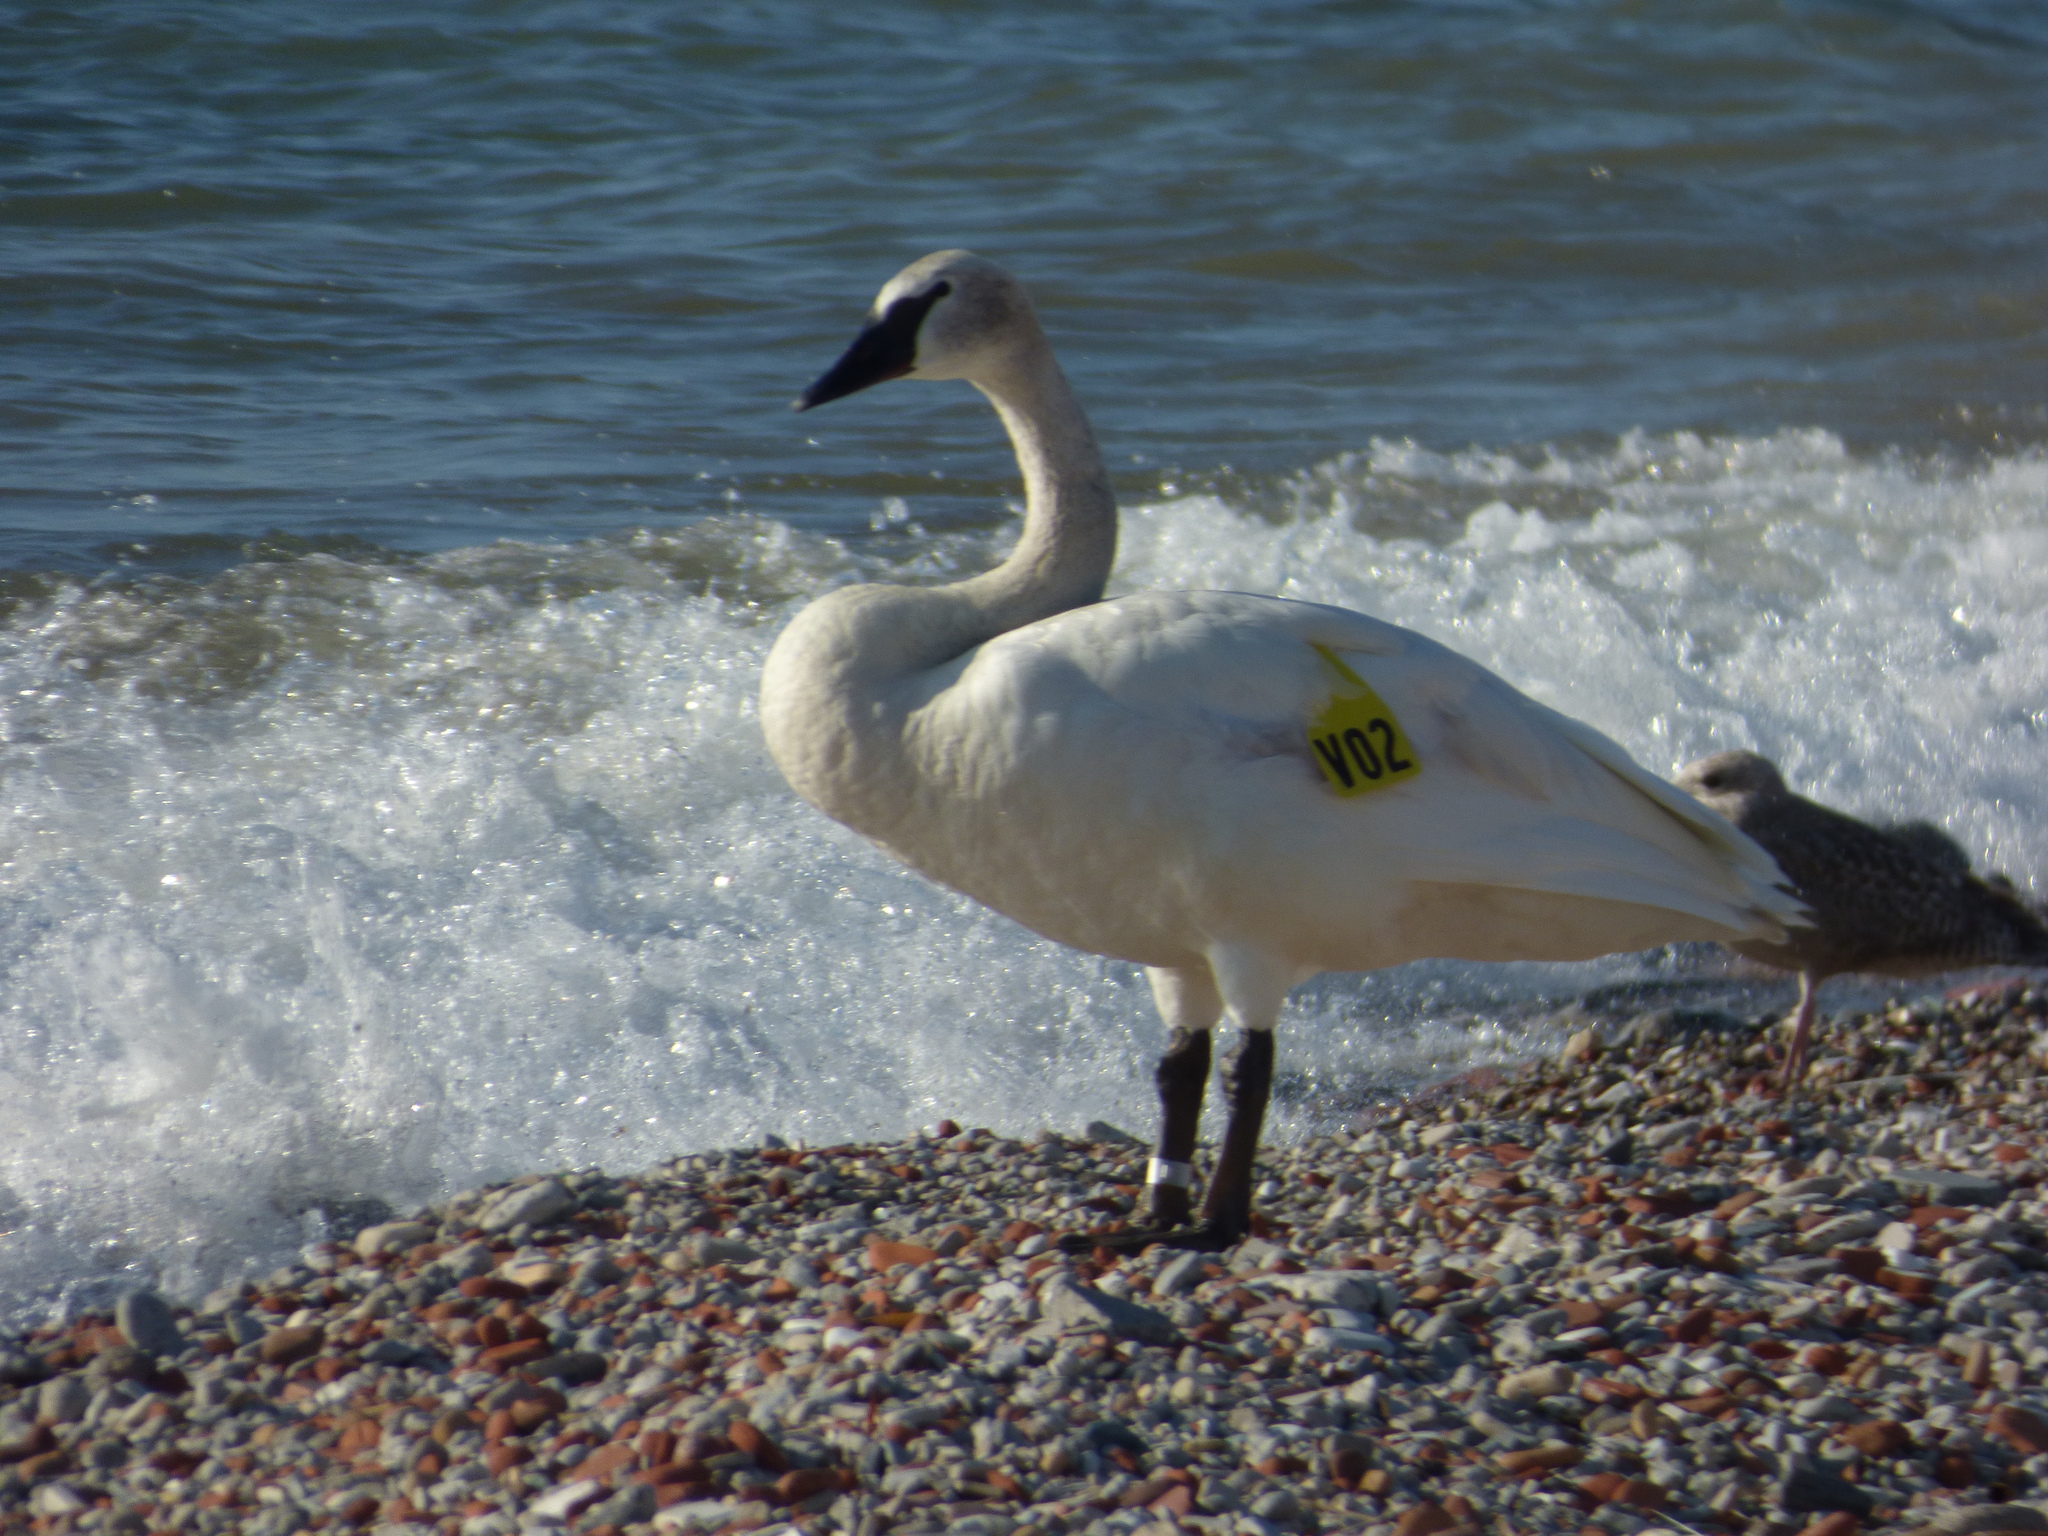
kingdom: Animalia
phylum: Chordata
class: Aves
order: Anseriformes
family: Anatidae
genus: Cygnus
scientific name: Cygnus buccinator
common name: Trumpeter swan
